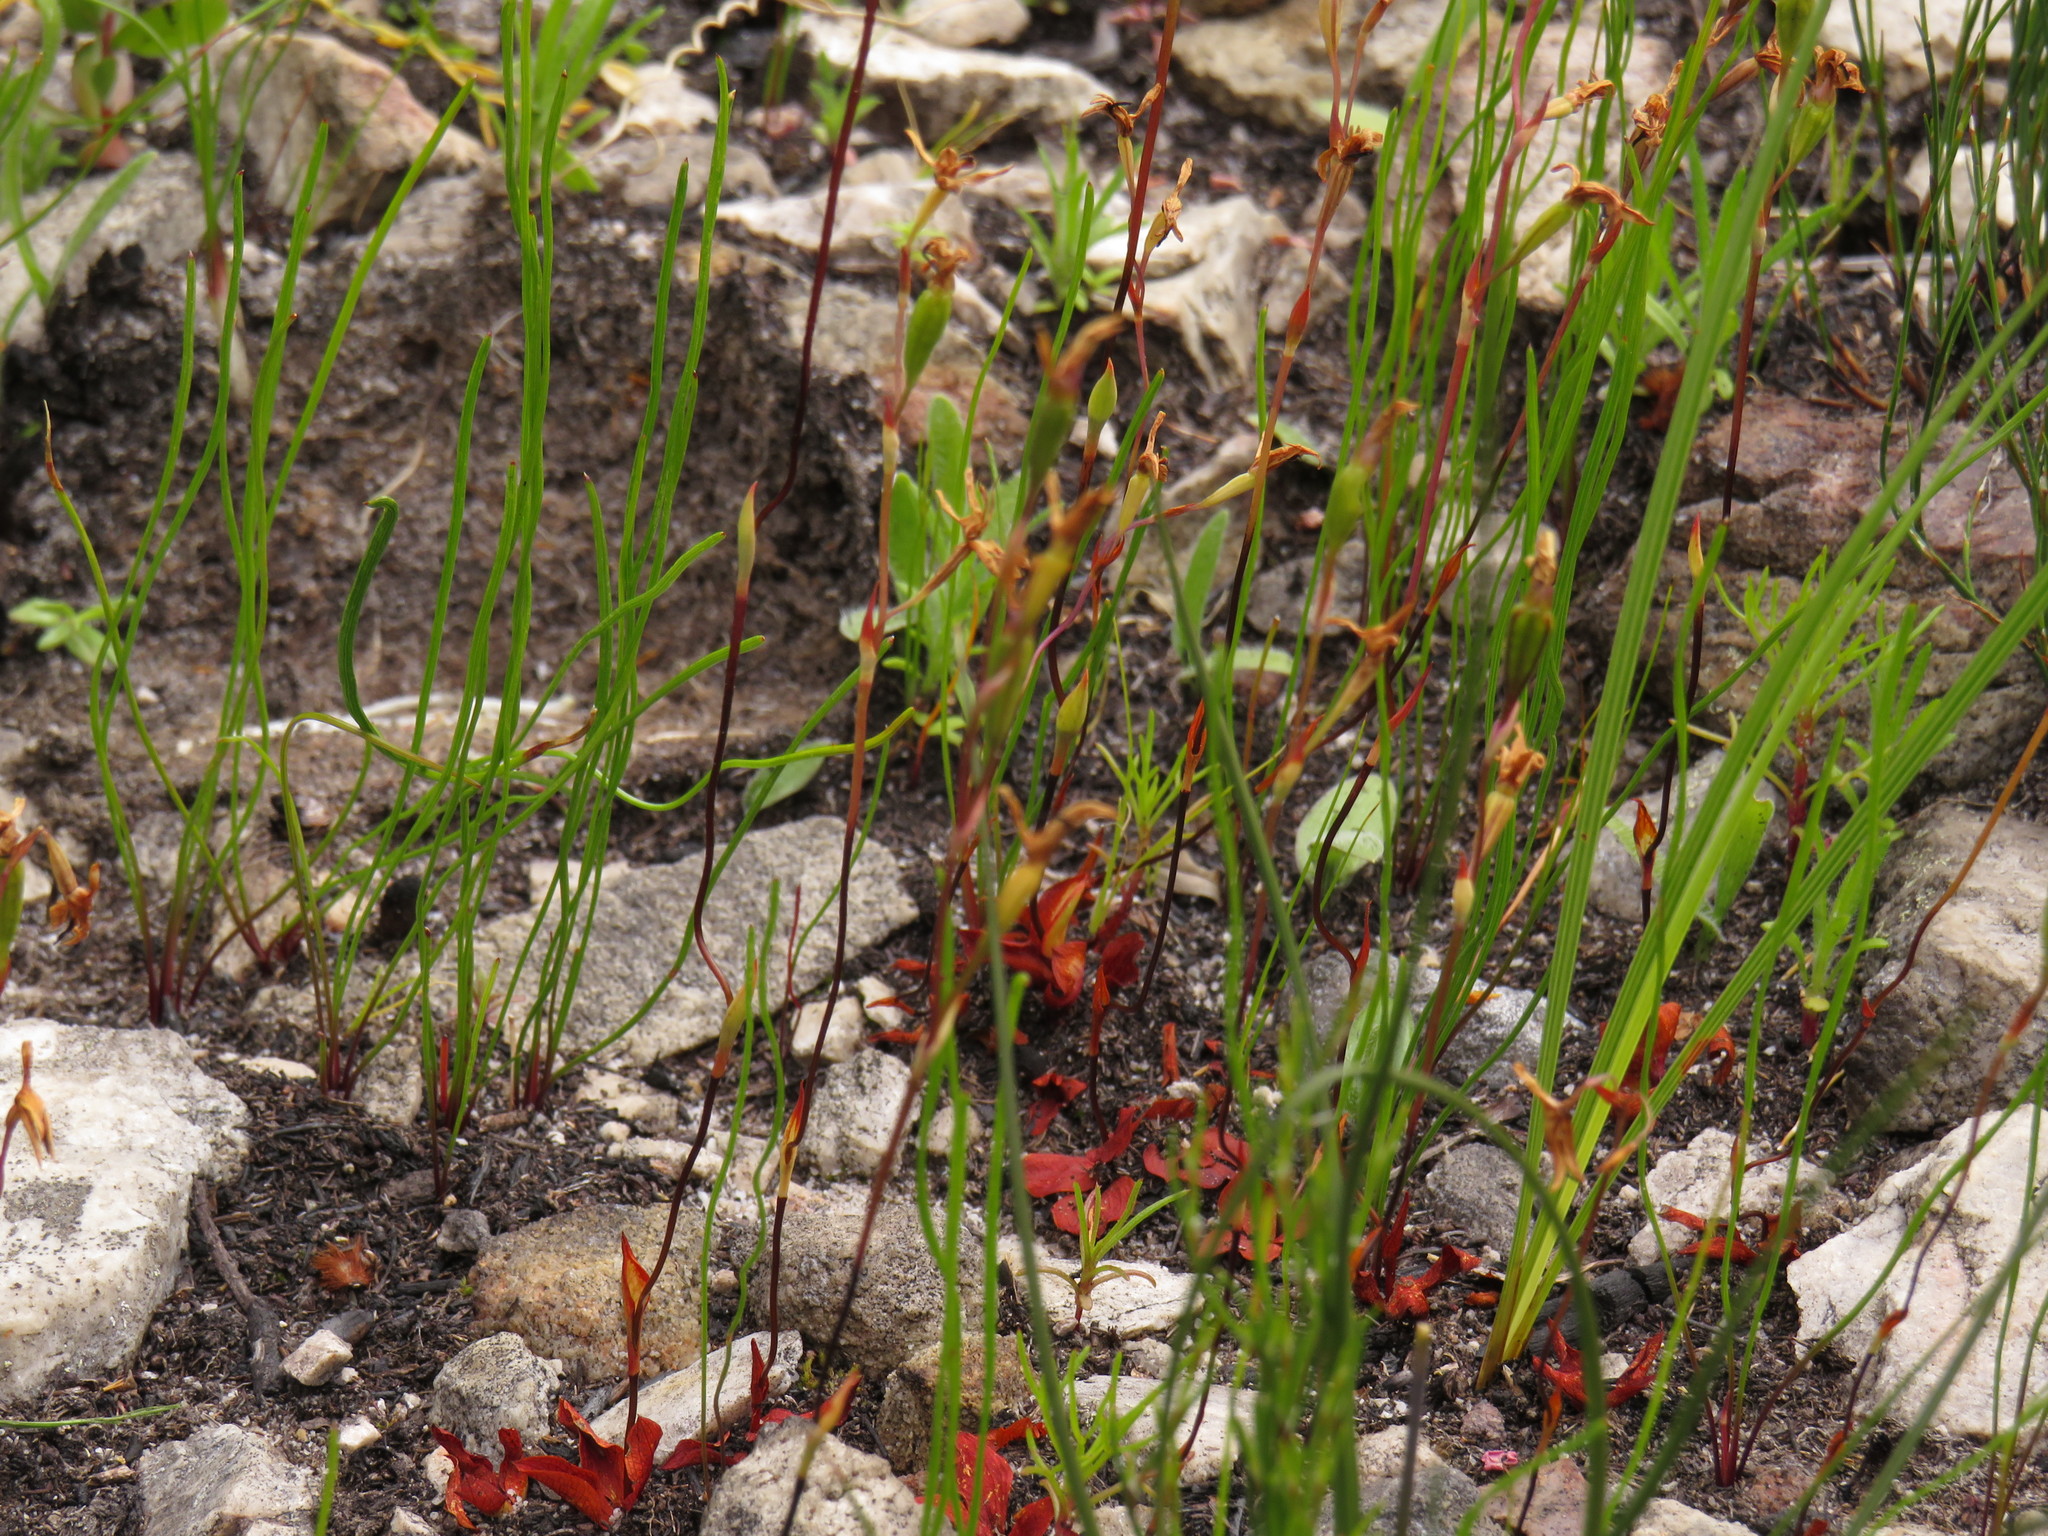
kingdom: Plantae
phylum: Tracheophyta
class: Liliopsida
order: Asparagales
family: Orchidaceae
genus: Disa
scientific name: Disa obliqua
